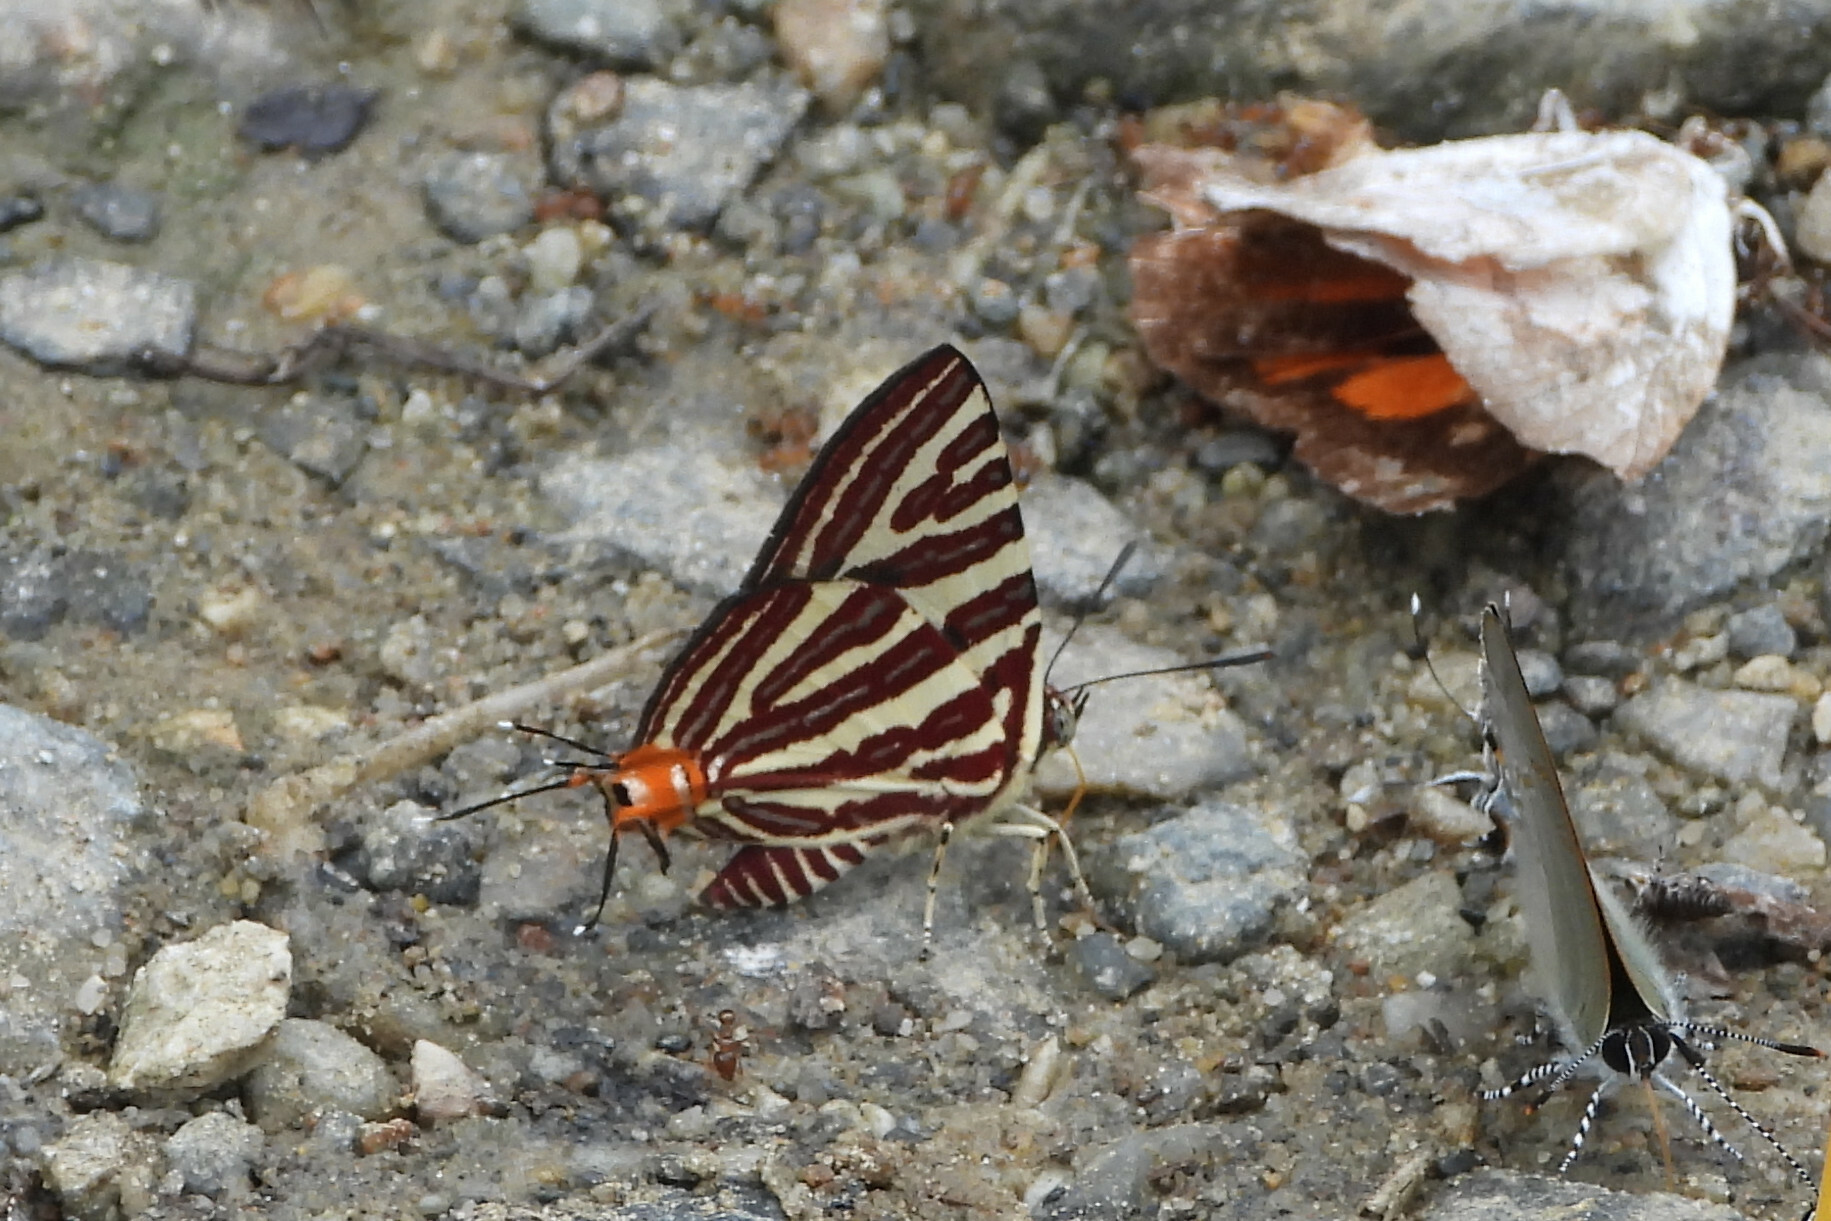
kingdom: Animalia
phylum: Arthropoda
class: Insecta
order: Lepidoptera
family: Lycaenidae
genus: Cigaritis
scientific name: Cigaritis lohita
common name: Long-banded silverline
